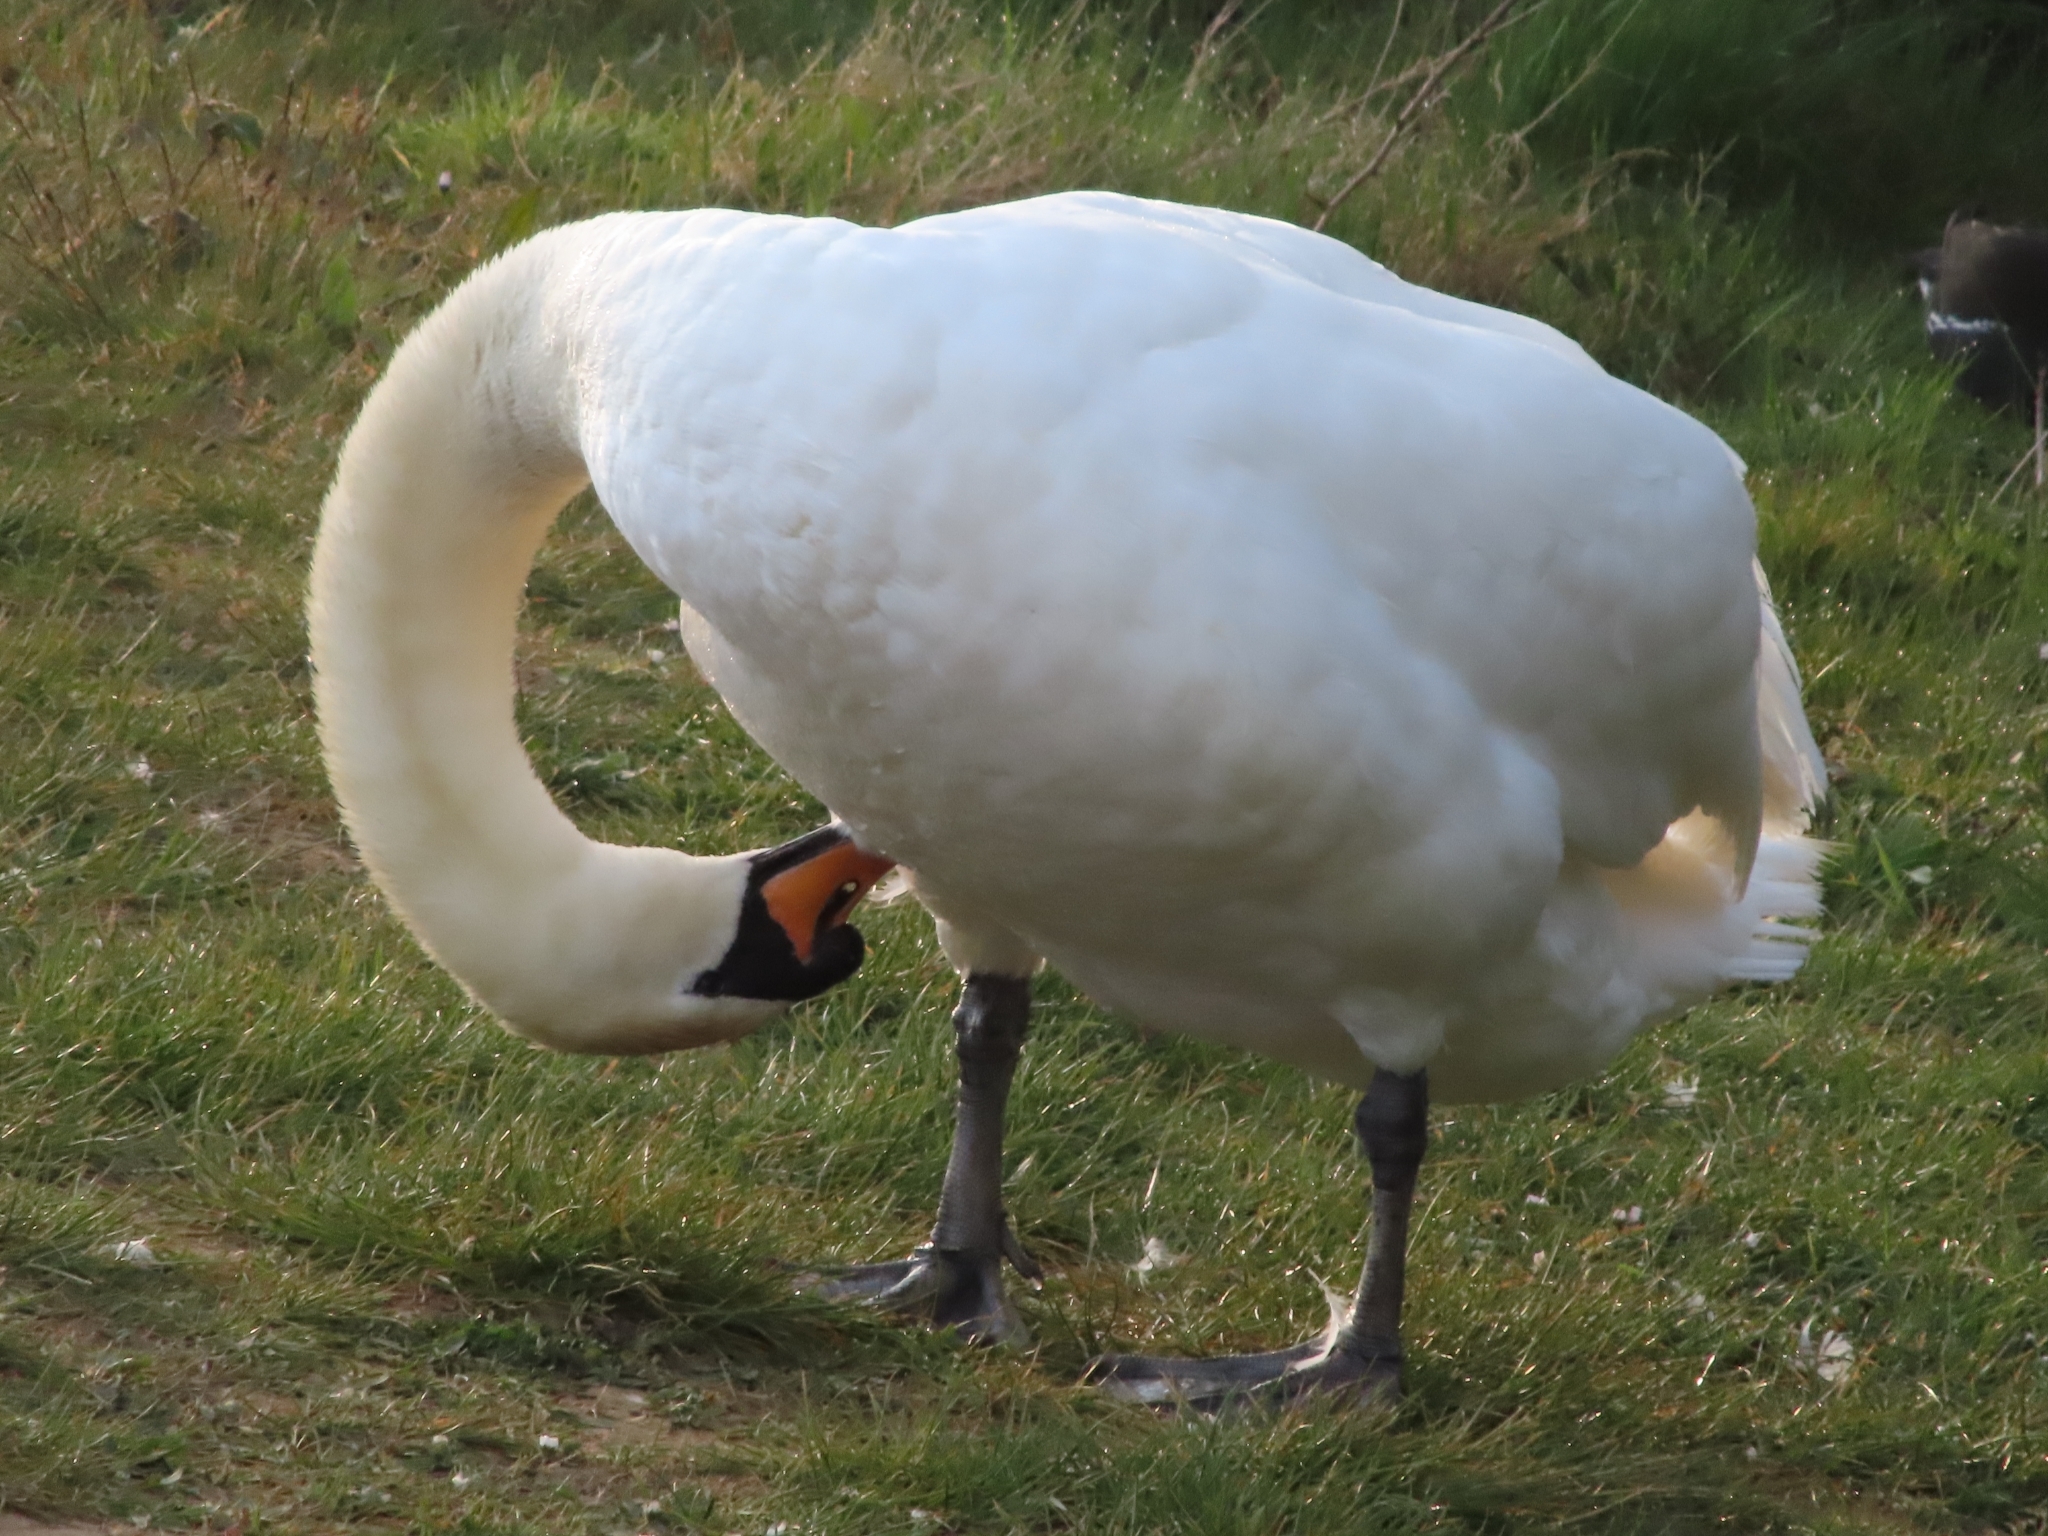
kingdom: Animalia
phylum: Chordata
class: Aves
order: Anseriformes
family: Anatidae
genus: Cygnus
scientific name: Cygnus olor
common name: Mute swan
